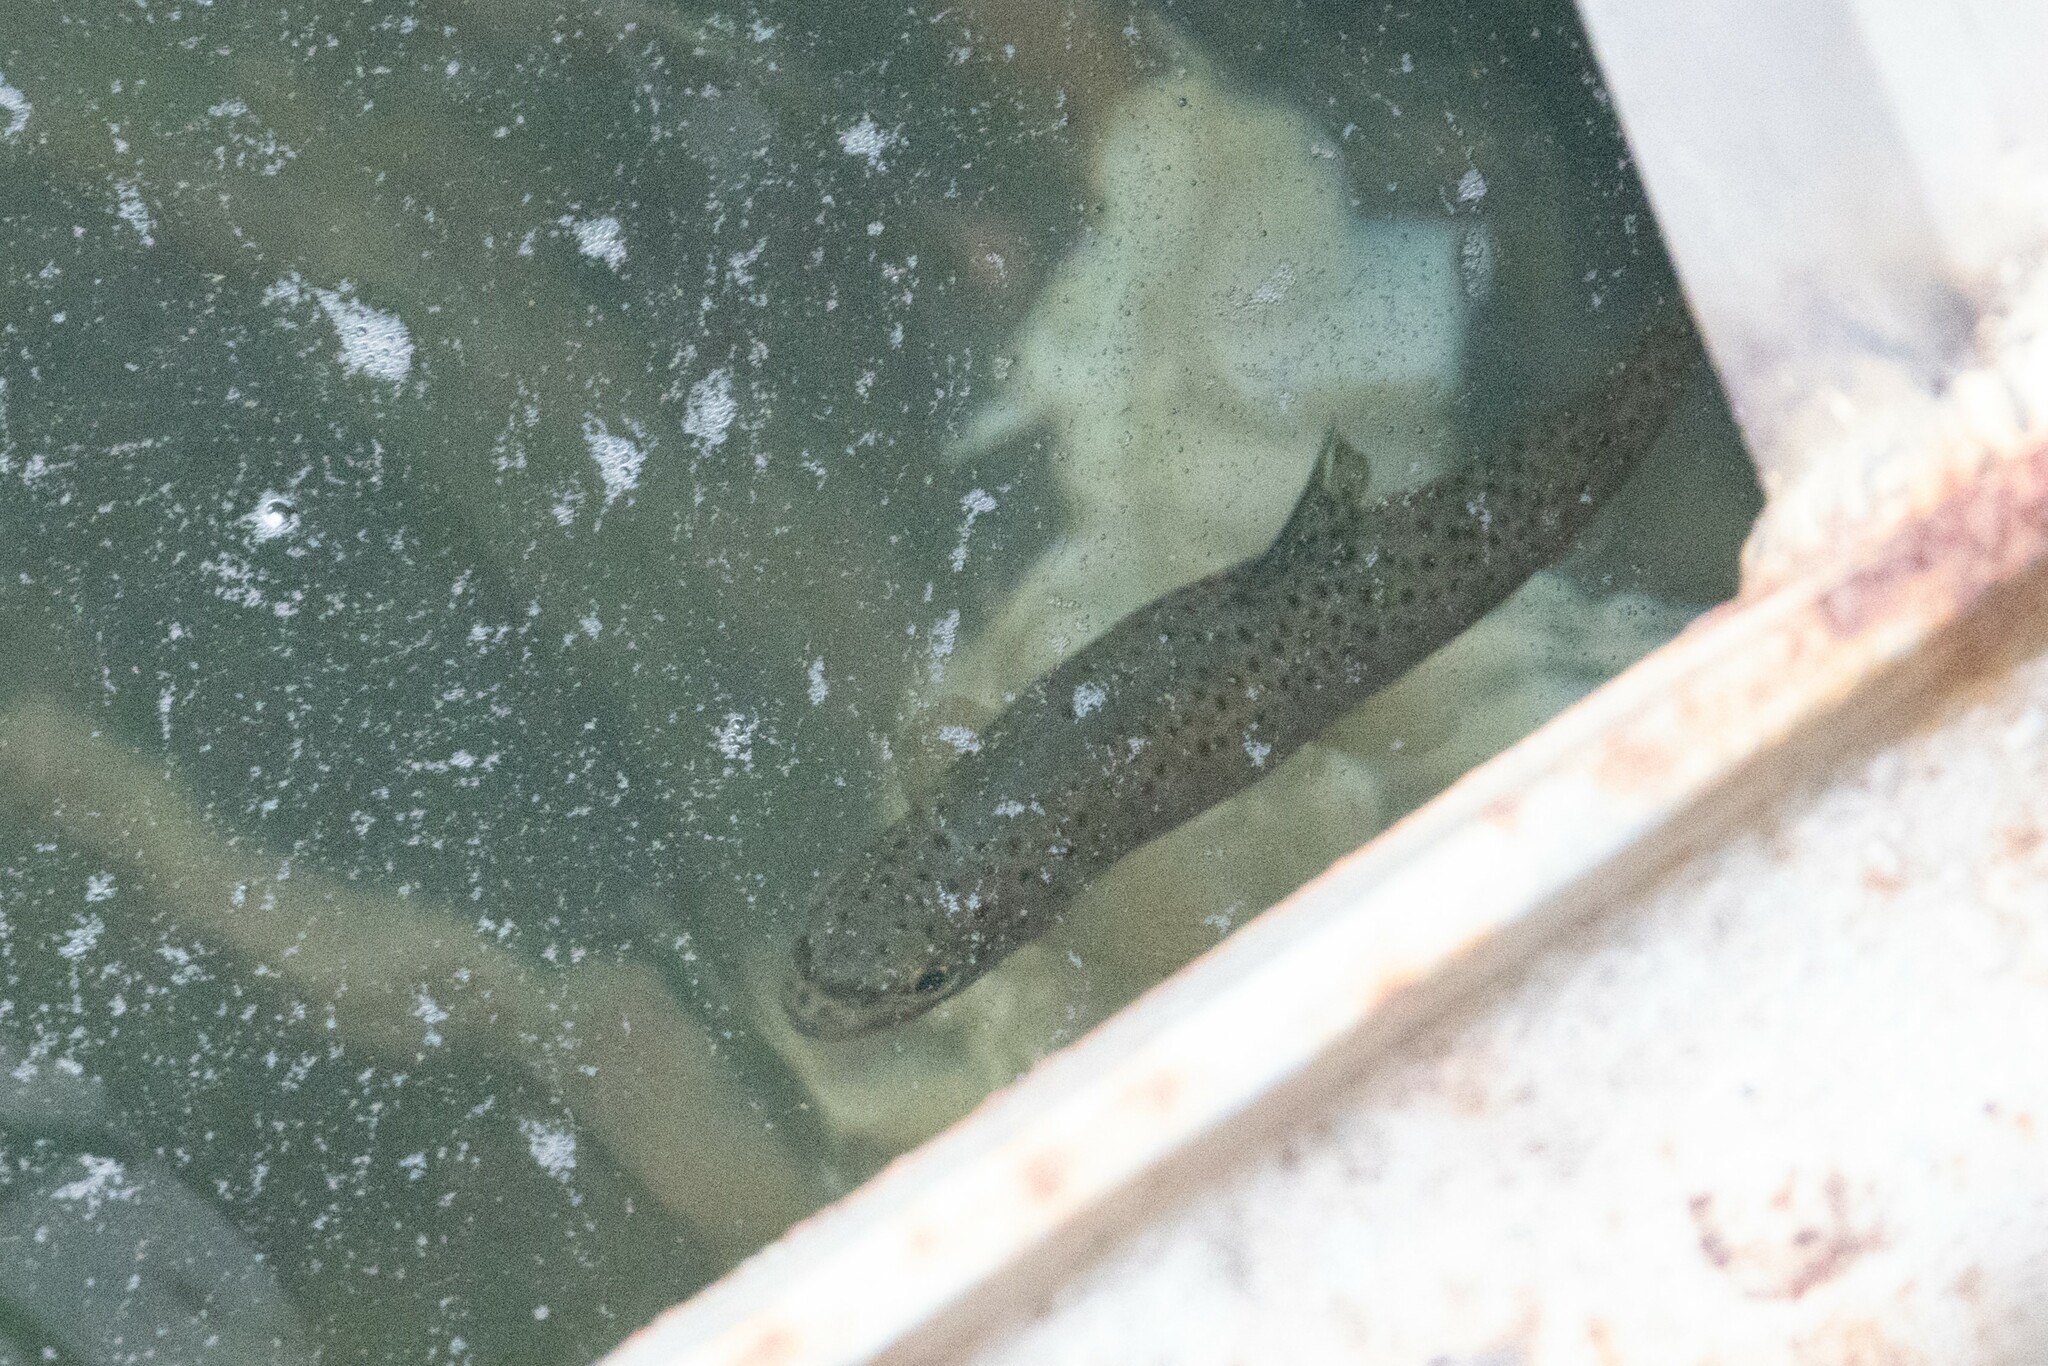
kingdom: Animalia
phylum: Chordata
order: Salmoniformes
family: Salmonidae
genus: Salmo
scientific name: Salmo trutta
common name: Brown trout
